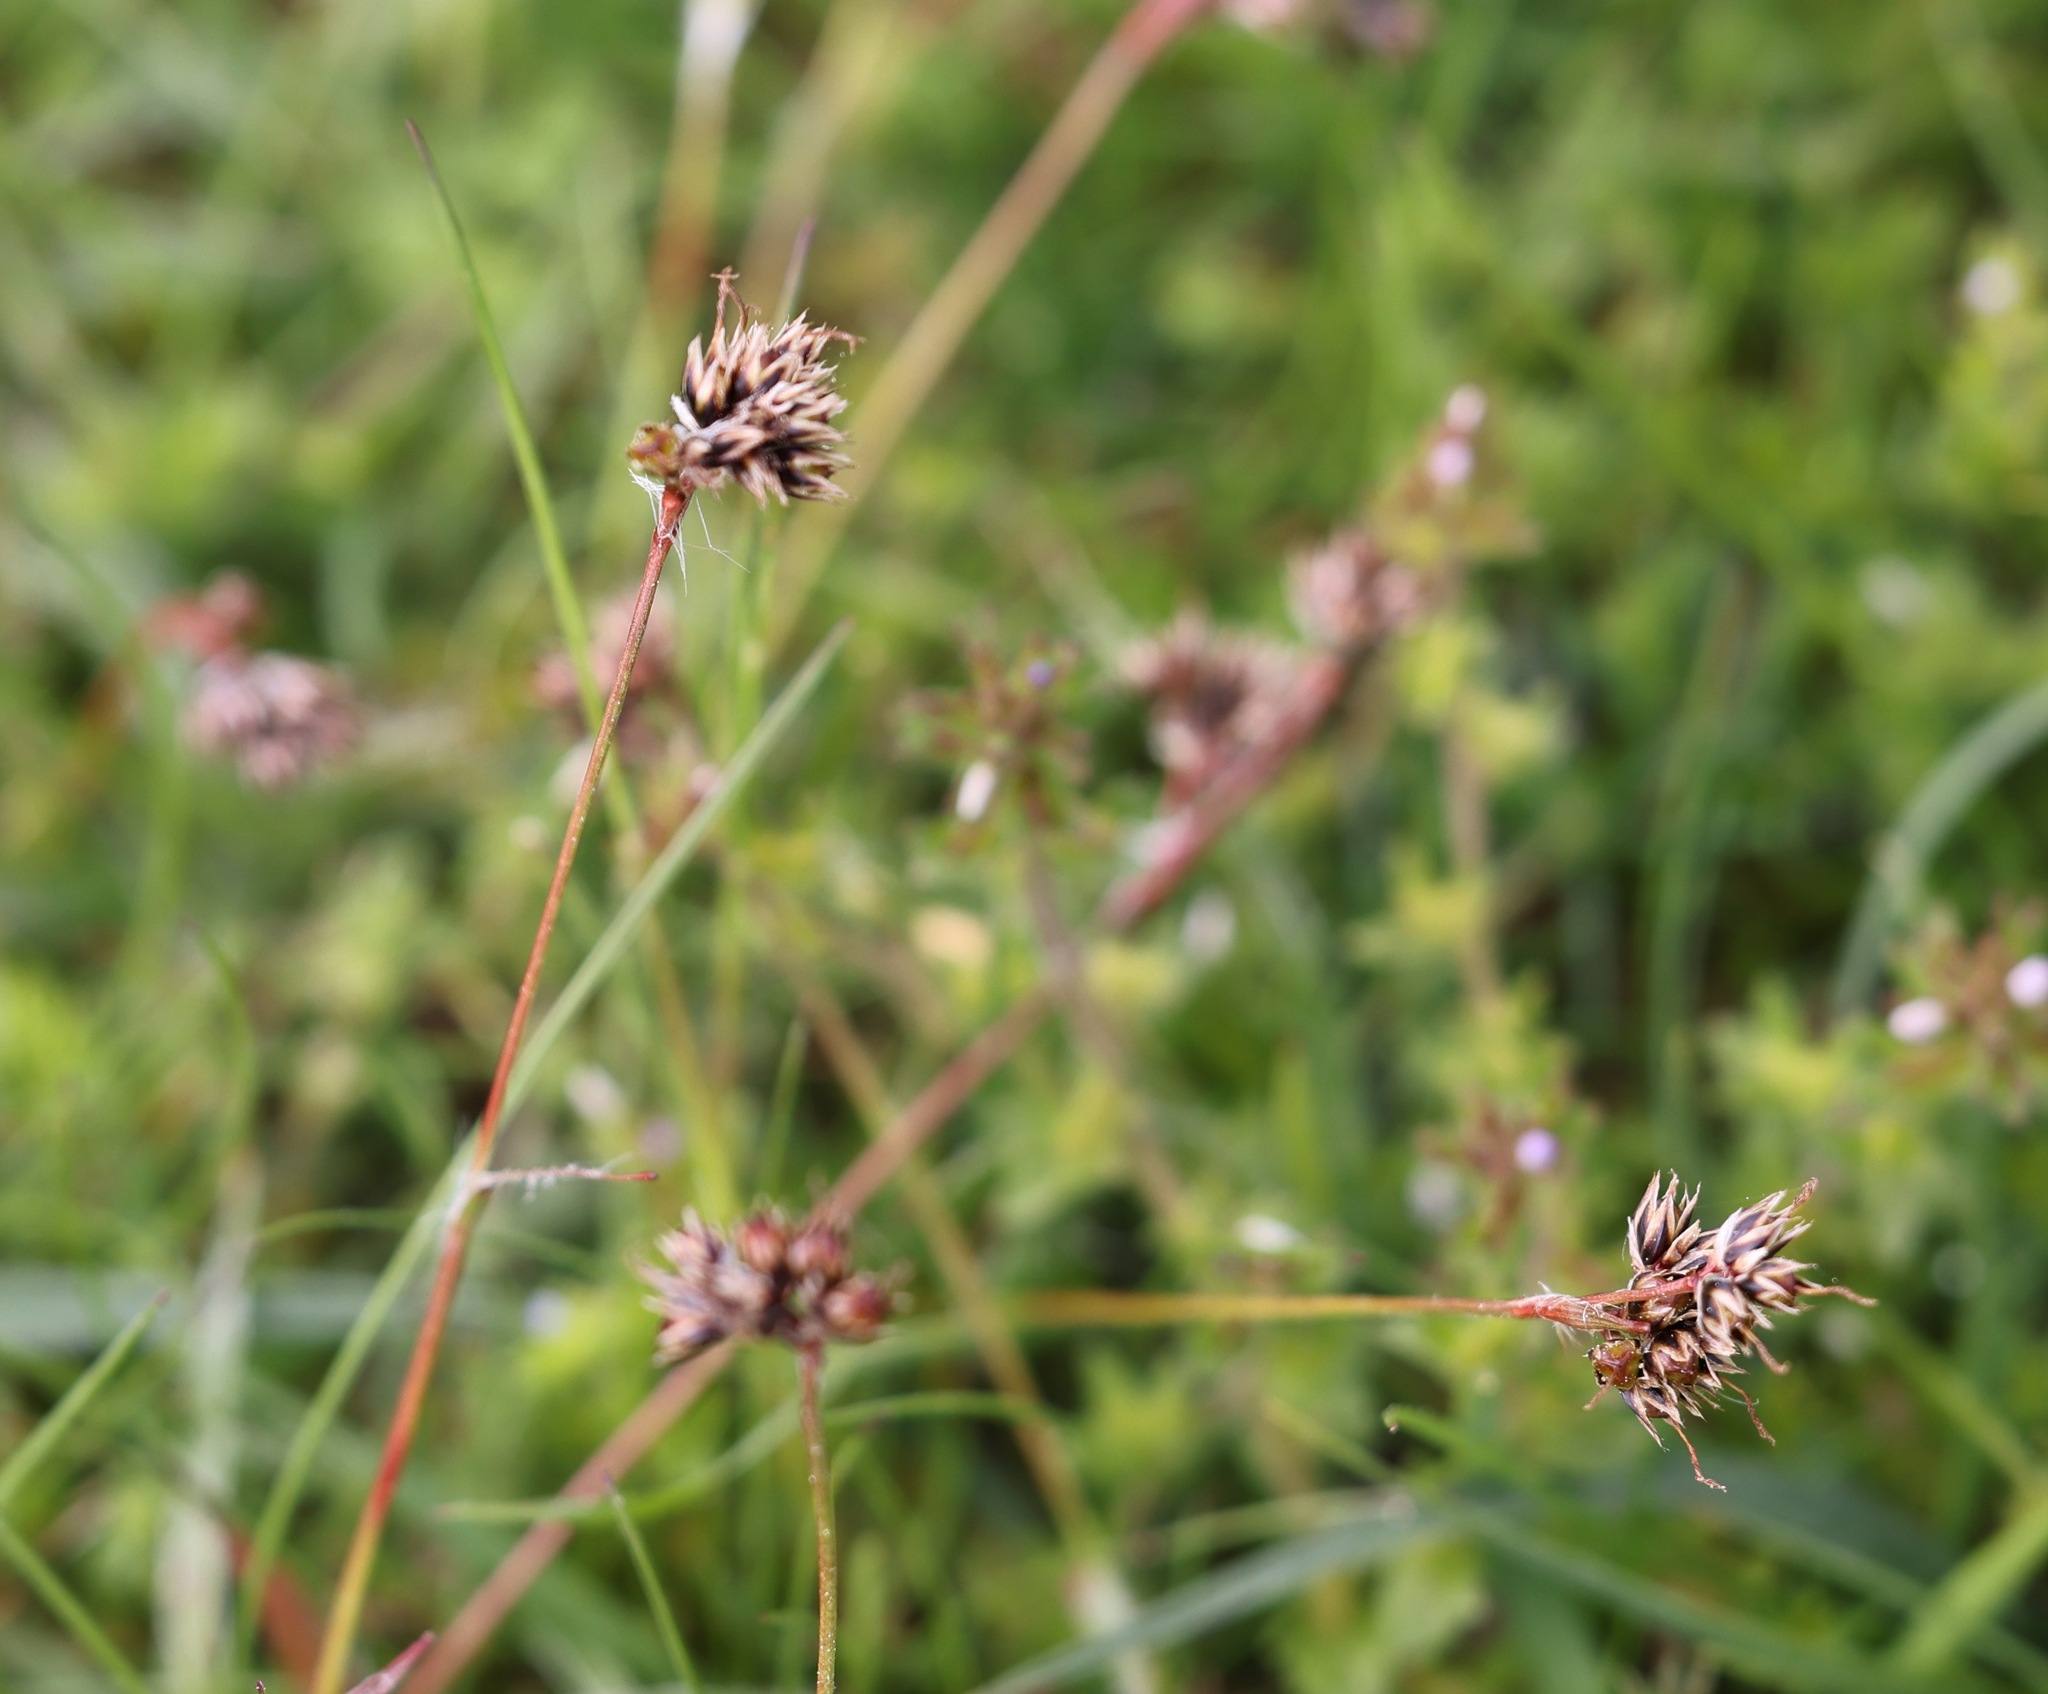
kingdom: Plantae
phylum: Tracheophyta
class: Liliopsida
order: Poales
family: Juncaceae
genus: Luzula
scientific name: Luzula campestris
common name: Field wood-rush
